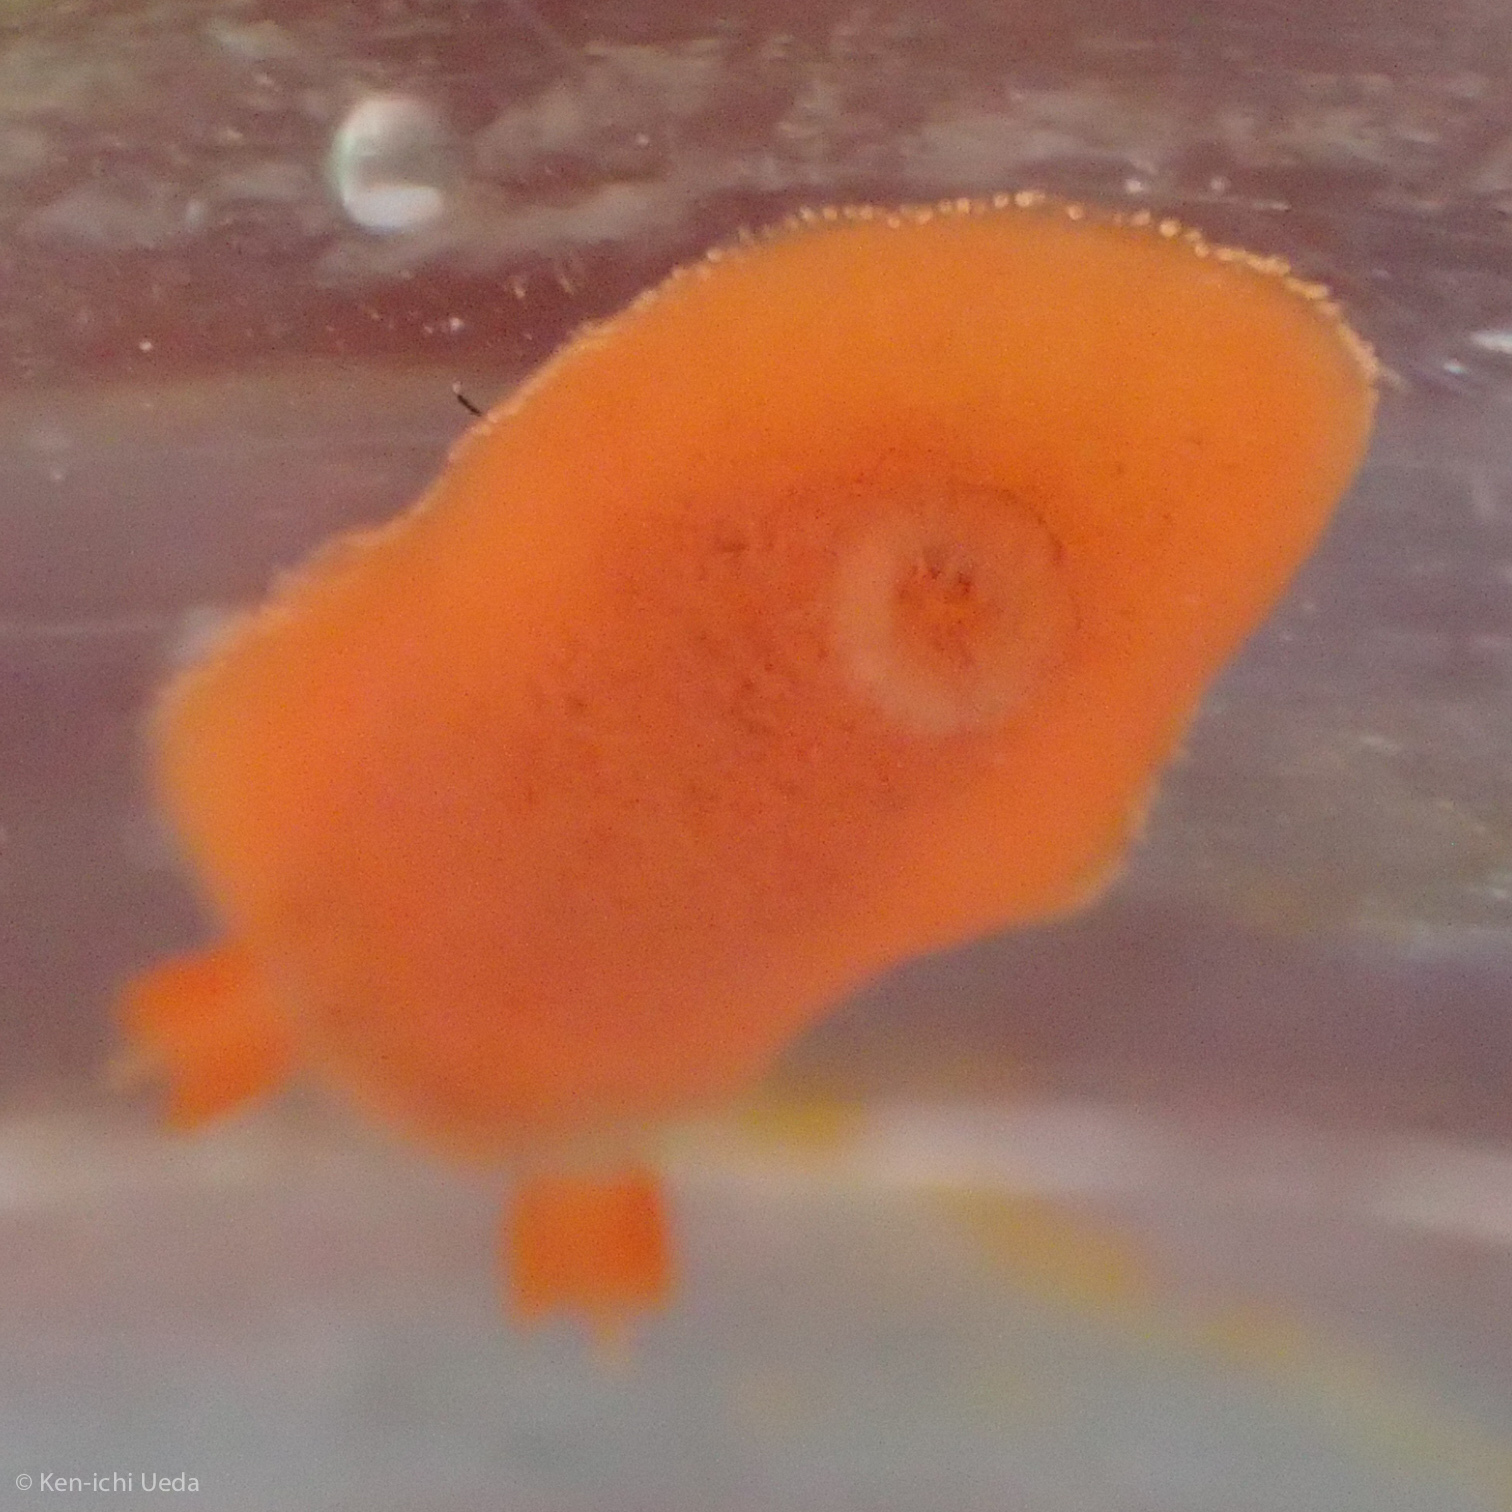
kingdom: Animalia
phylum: Mollusca
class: Gastropoda
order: Nudibranchia
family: Discodorididae
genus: Rostanga
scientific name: Rostanga pulchra
